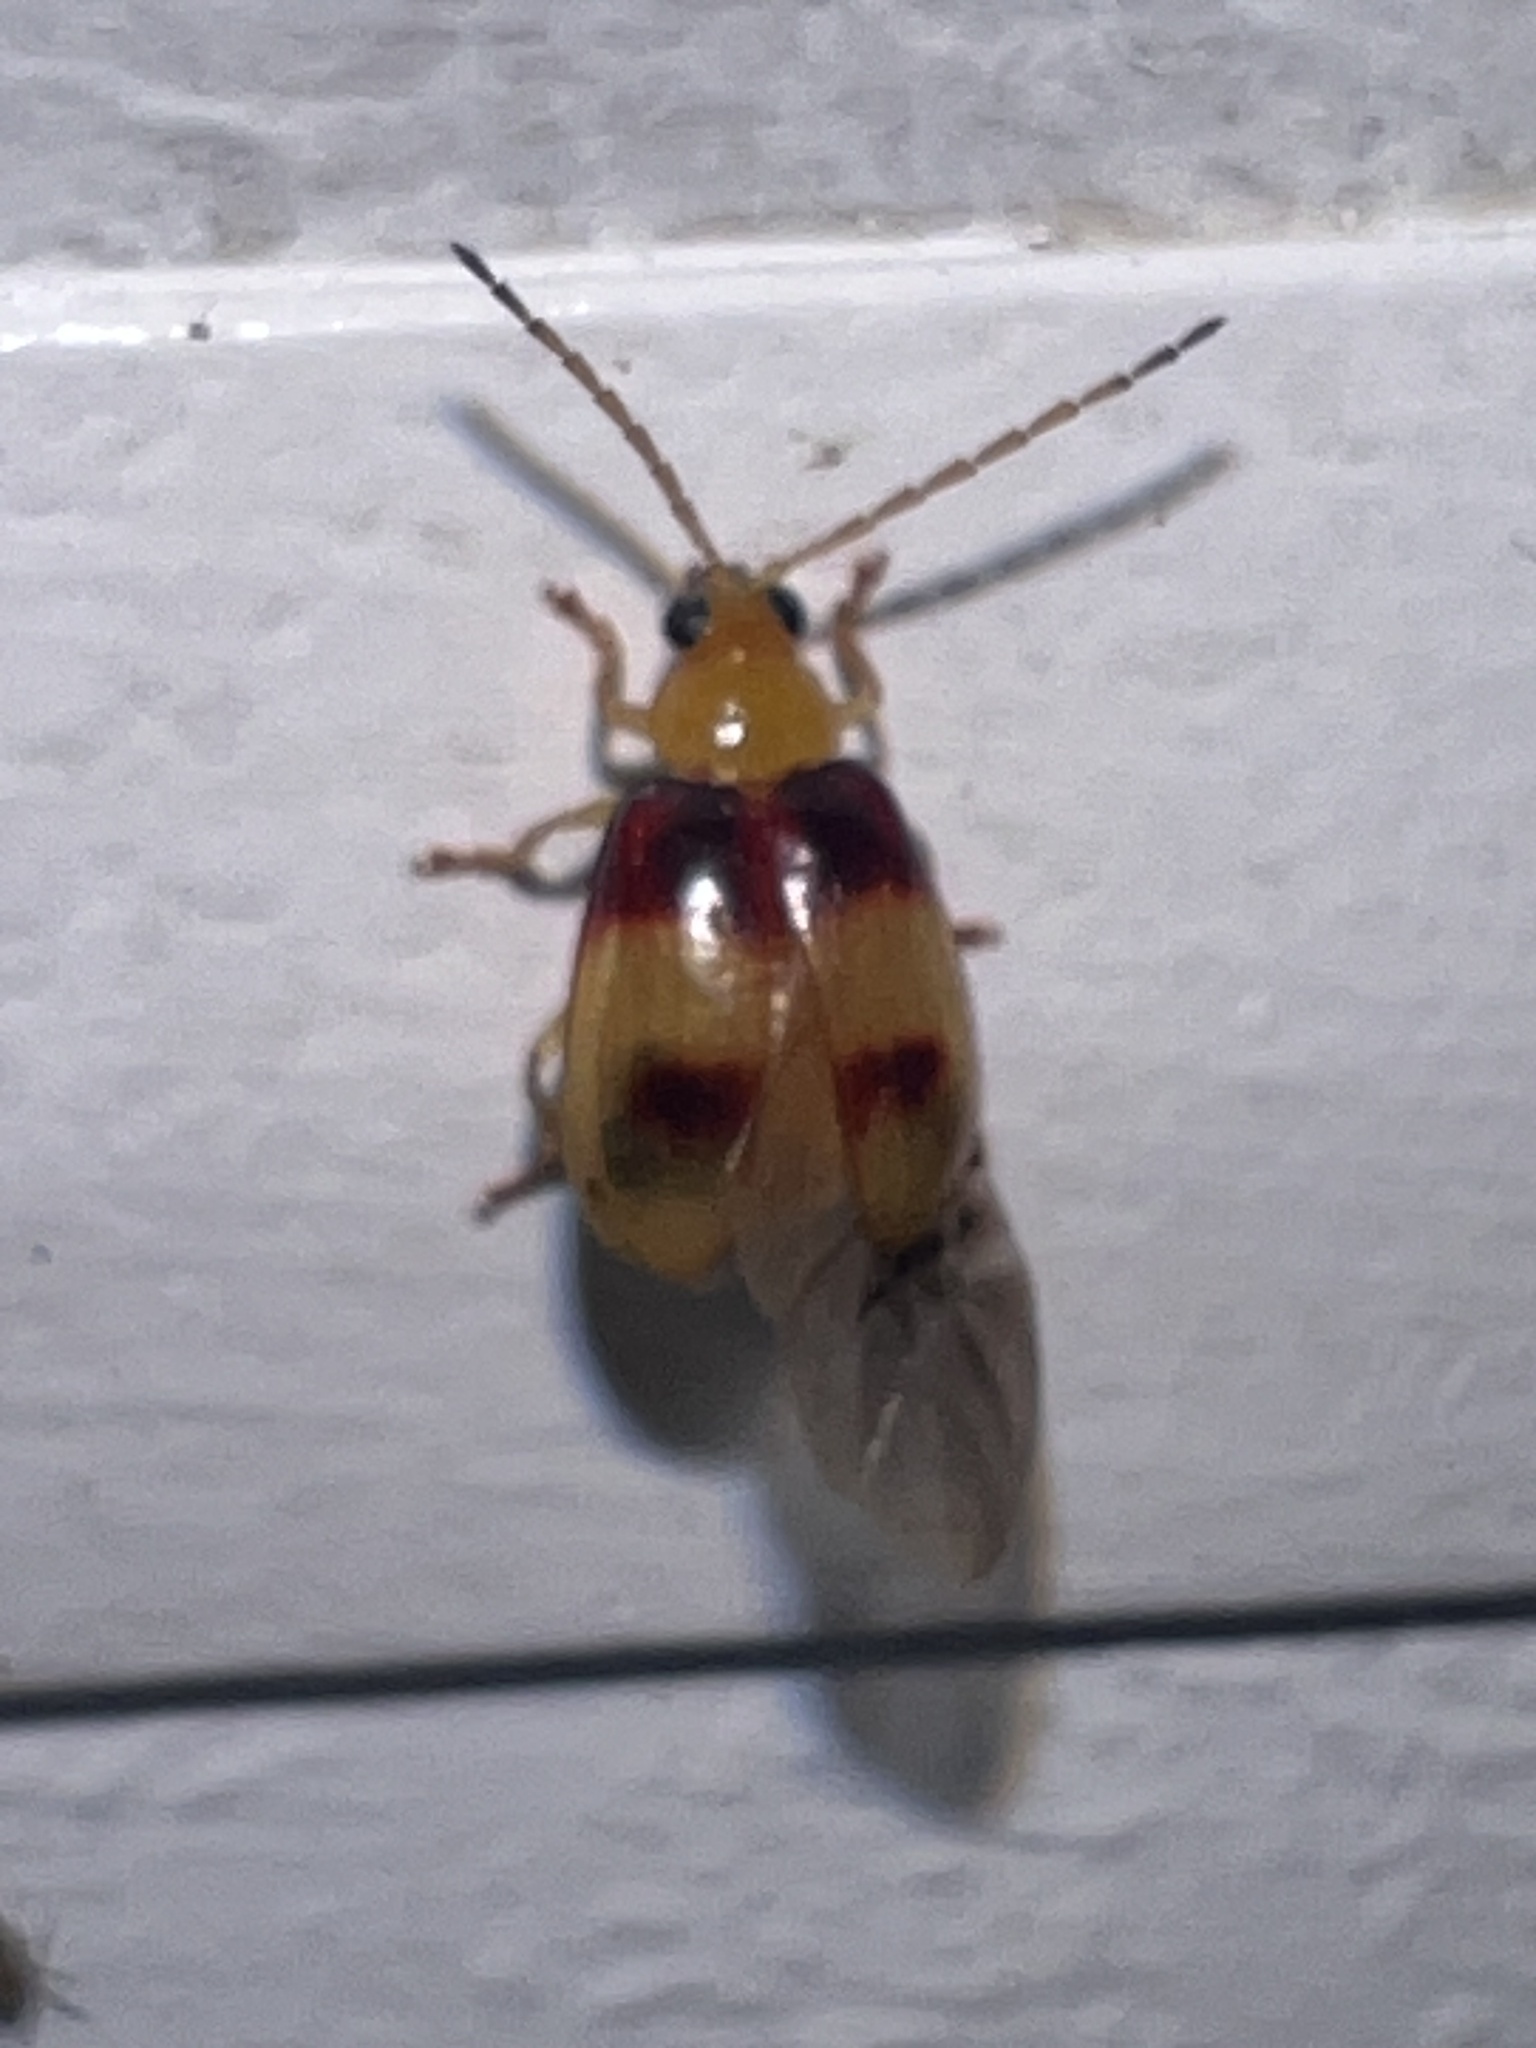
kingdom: Animalia
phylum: Arthropoda
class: Insecta
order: Coleoptera
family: Chrysomelidae
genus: Monolepta
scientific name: Monolepta
